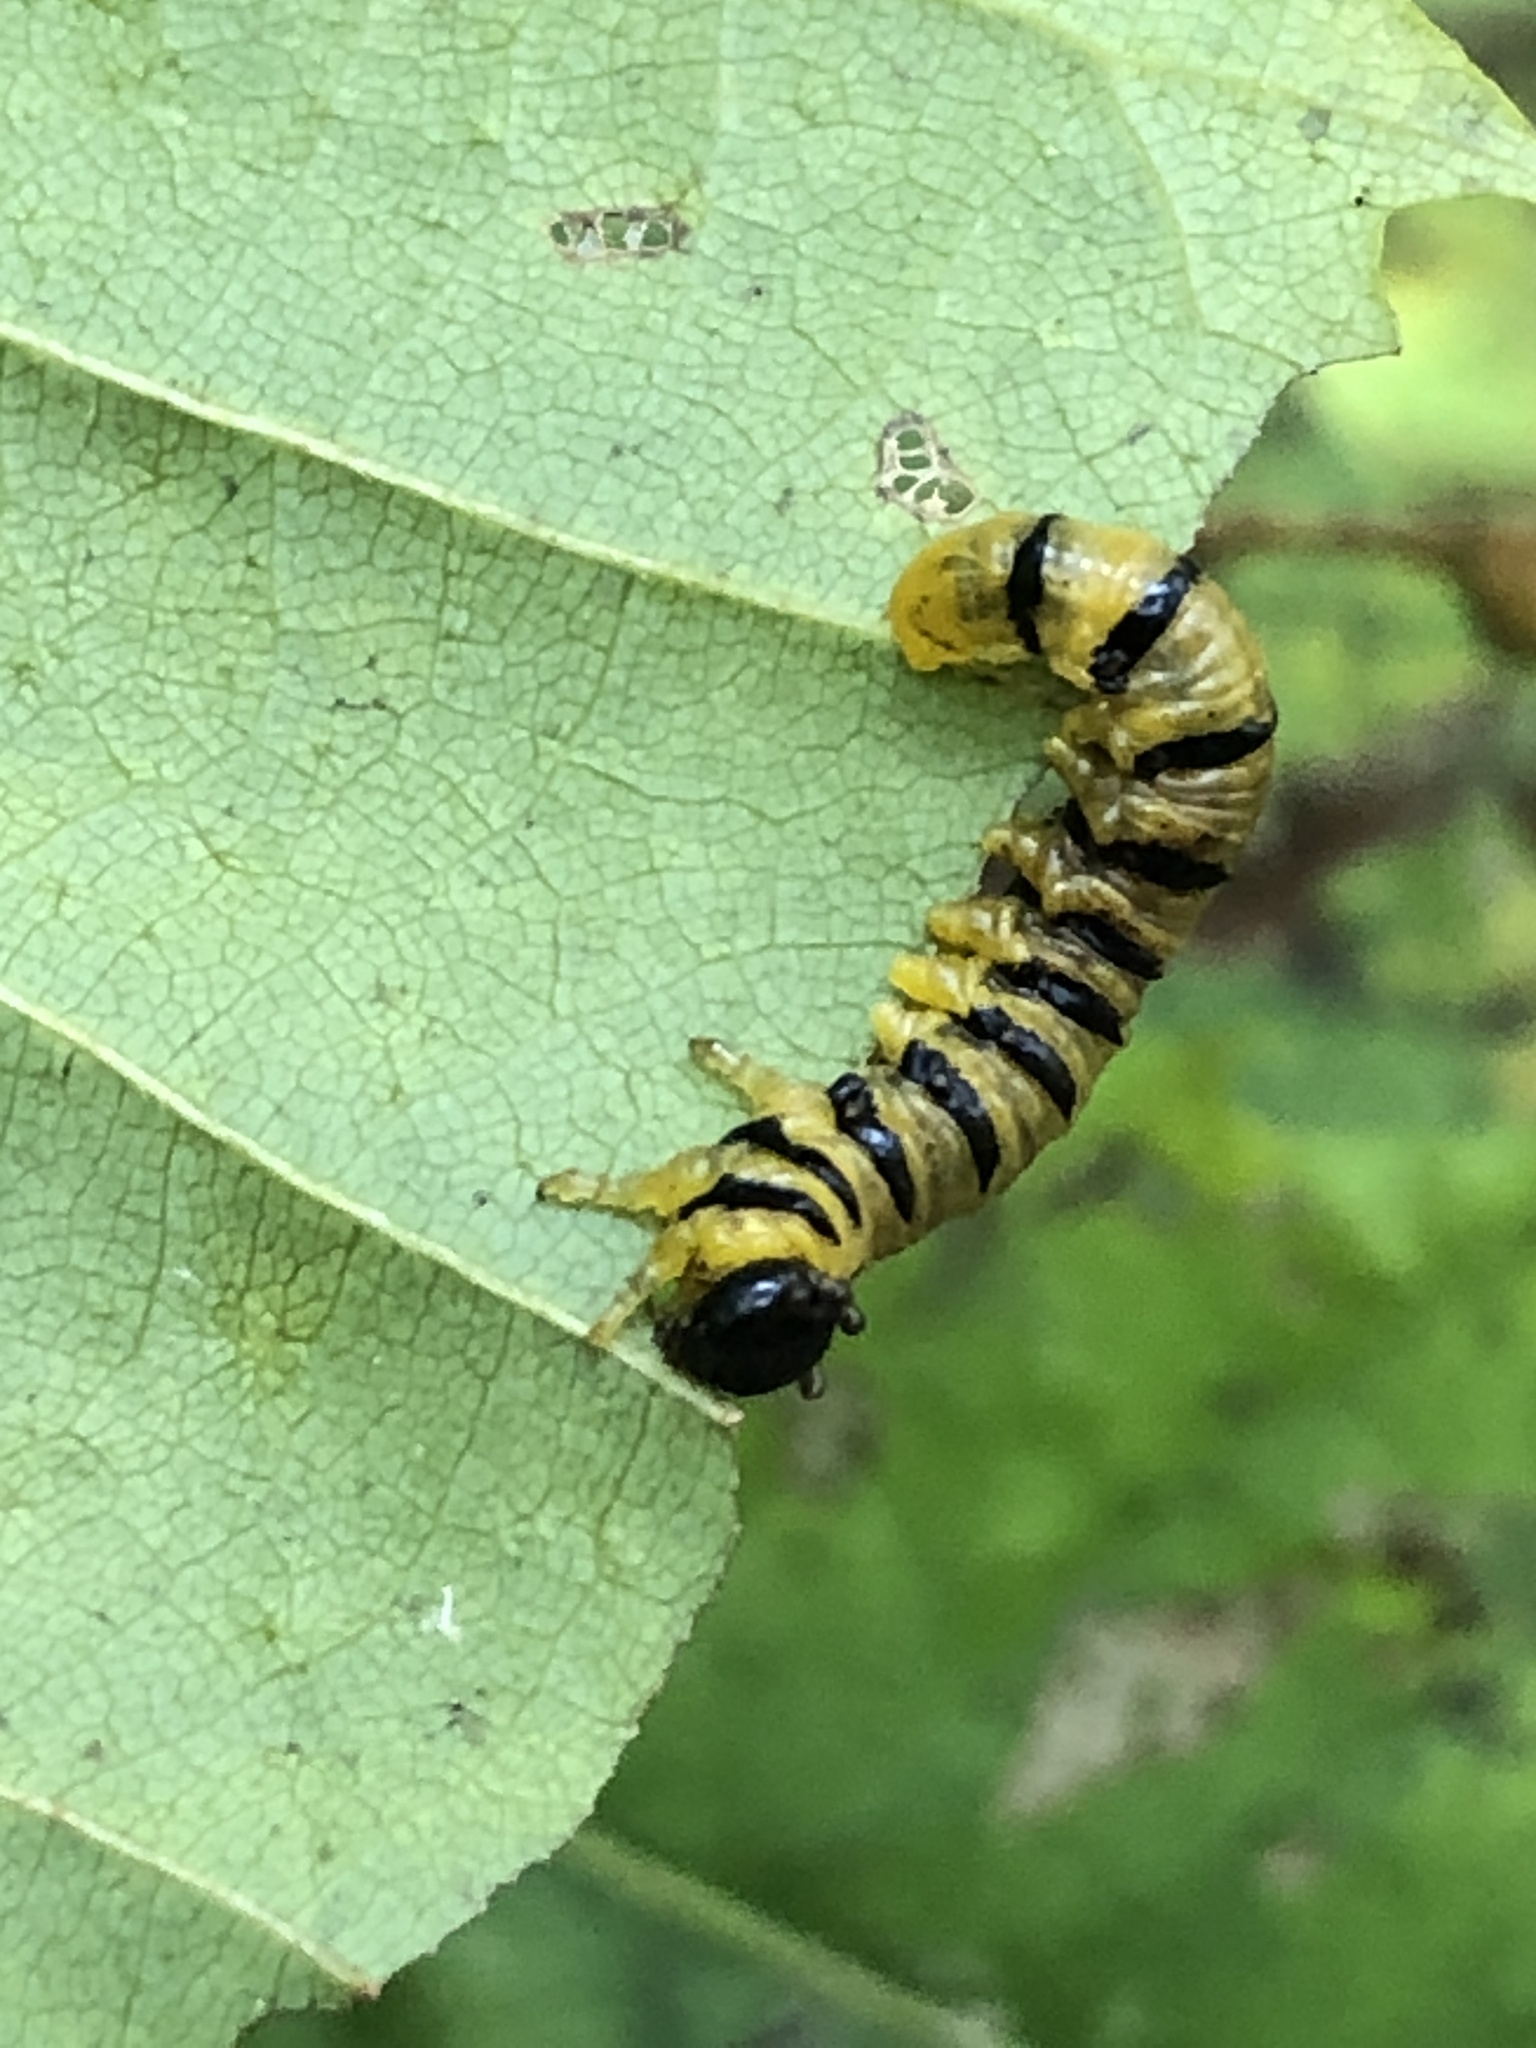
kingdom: Animalia
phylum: Arthropoda
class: Insecta
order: Hymenoptera
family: Tenthredinidae
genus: Nematus
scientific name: Nematus
